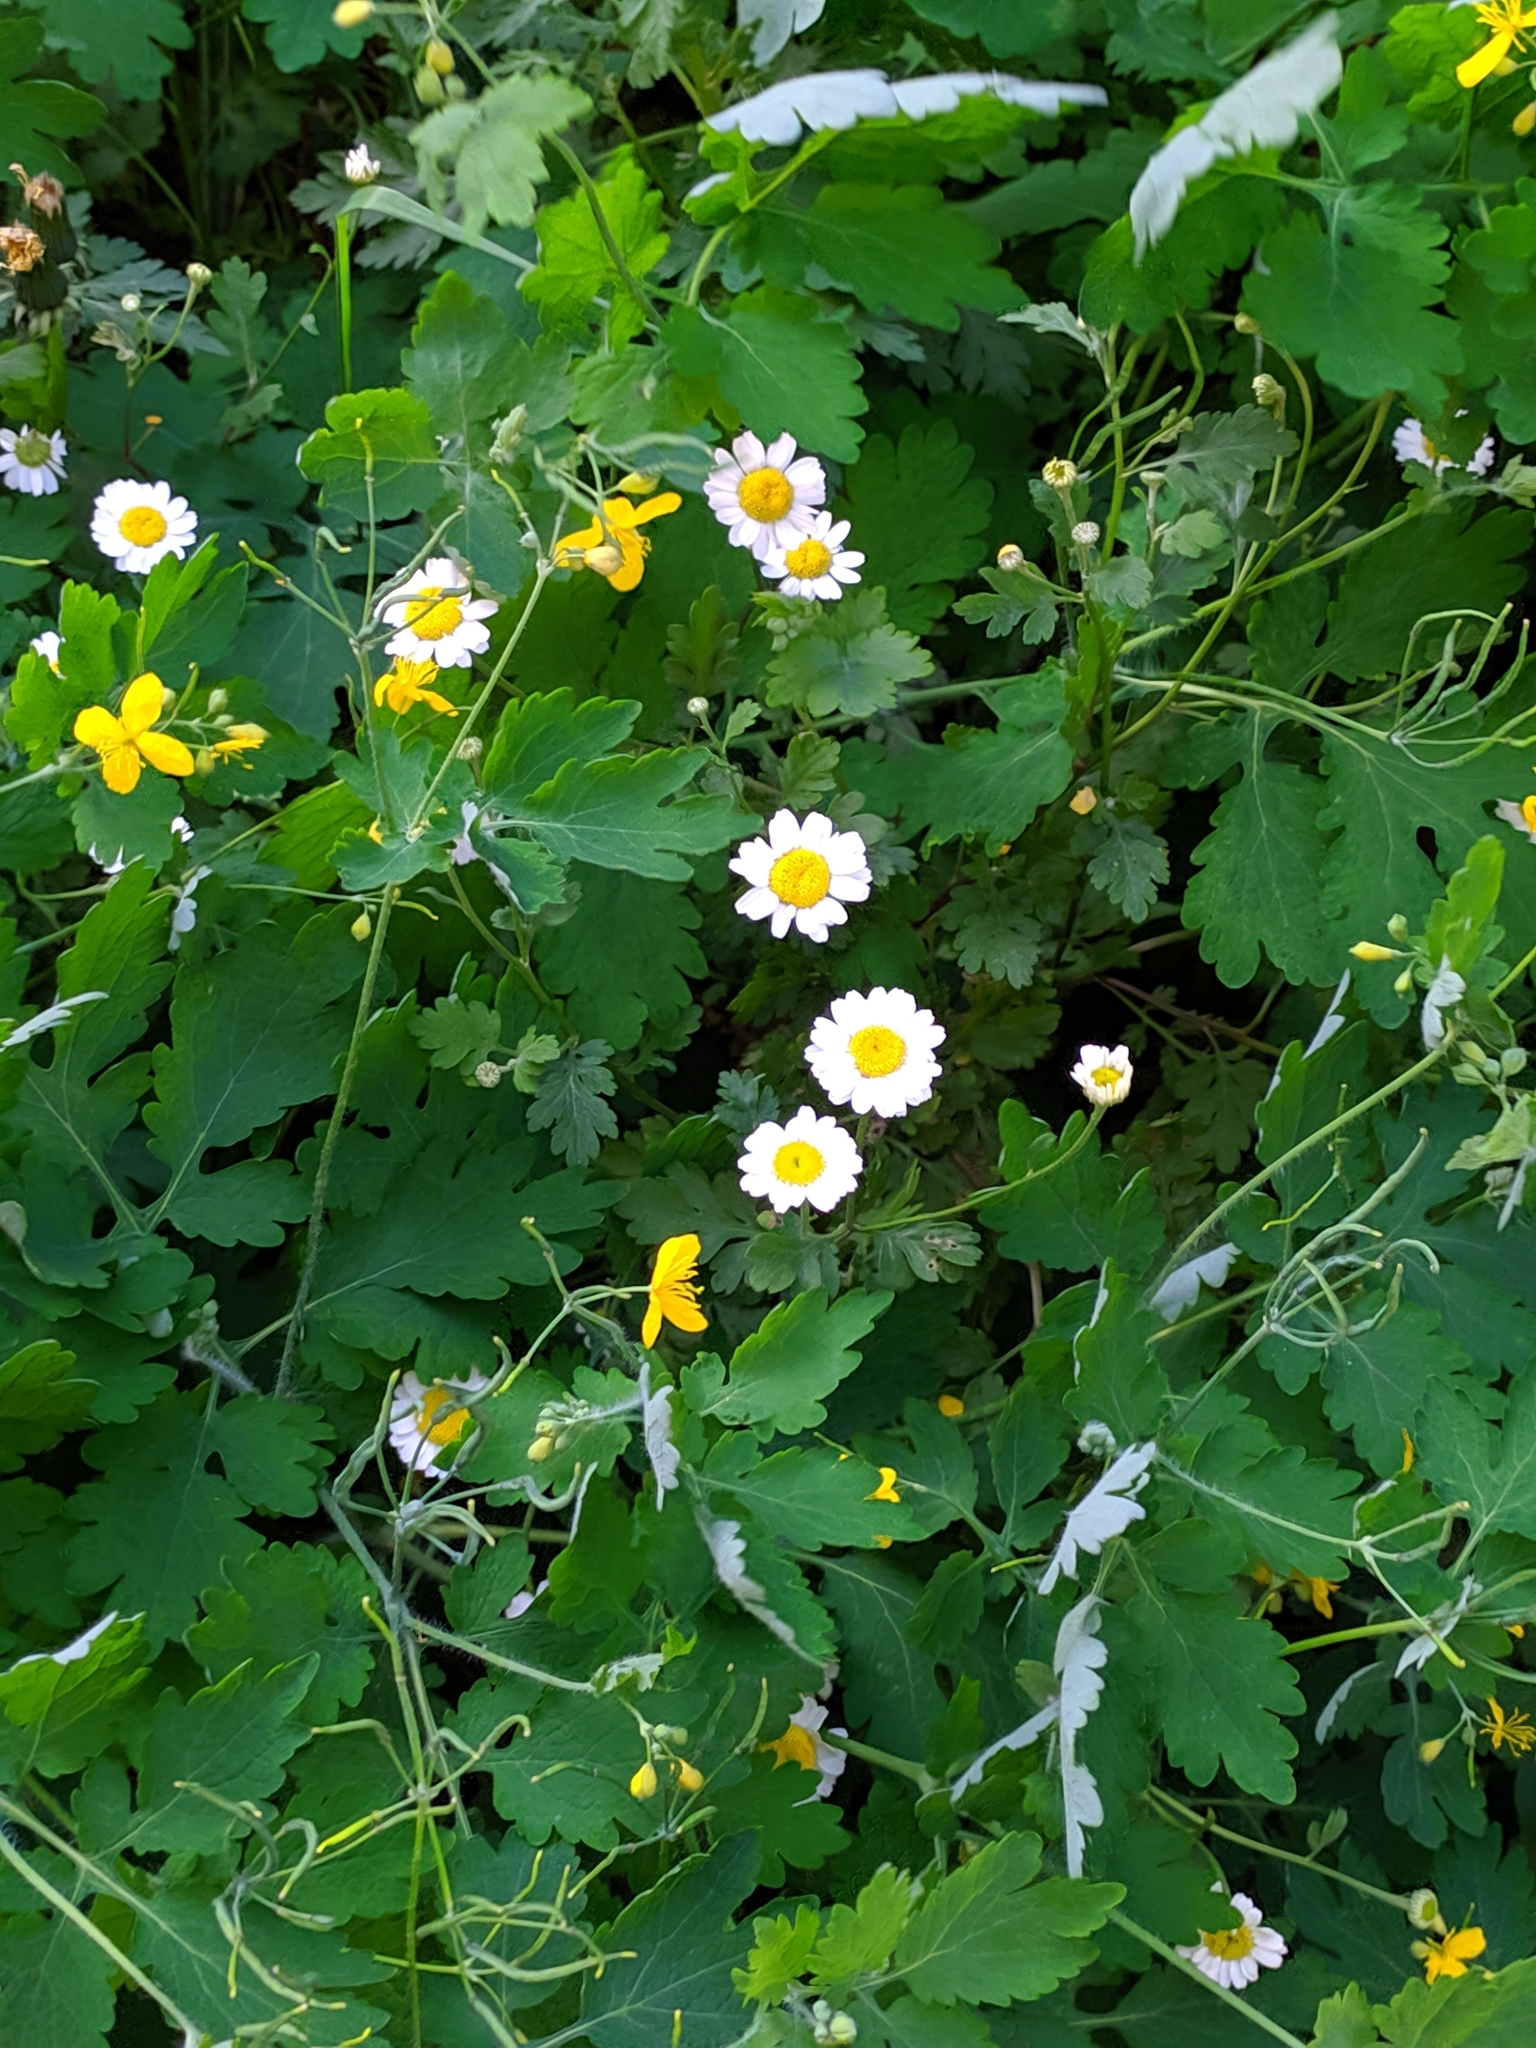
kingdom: Plantae
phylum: Tracheophyta
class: Magnoliopsida
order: Asterales
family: Asteraceae
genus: Tanacetum
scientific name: Tanacetum parthenium
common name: Feverfew
